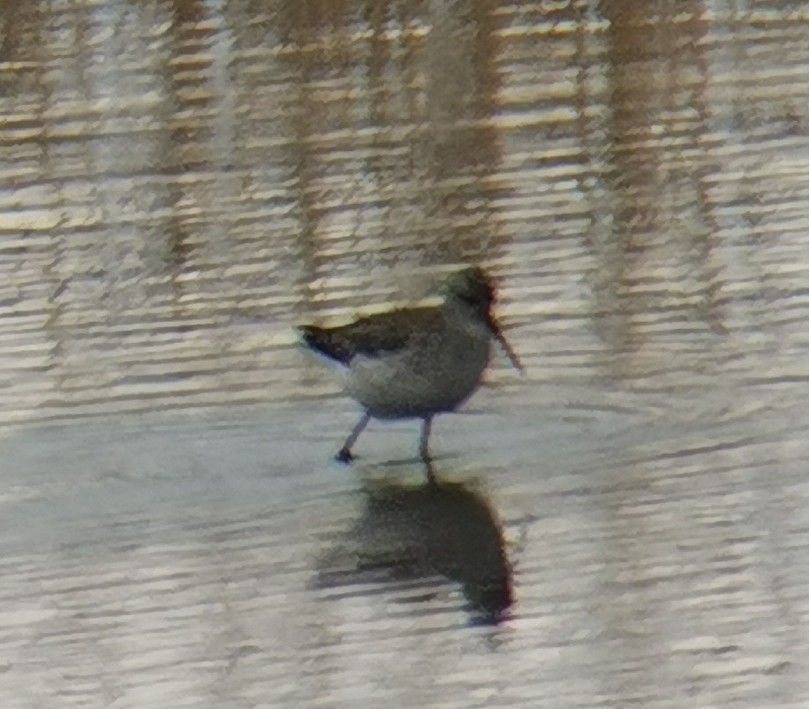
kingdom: Animalia
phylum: Chordata
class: Aves
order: Charadriiformes
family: Scolopacidae
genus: Tringa
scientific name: Tringa stagnatilis
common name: Marsh sandpiper
